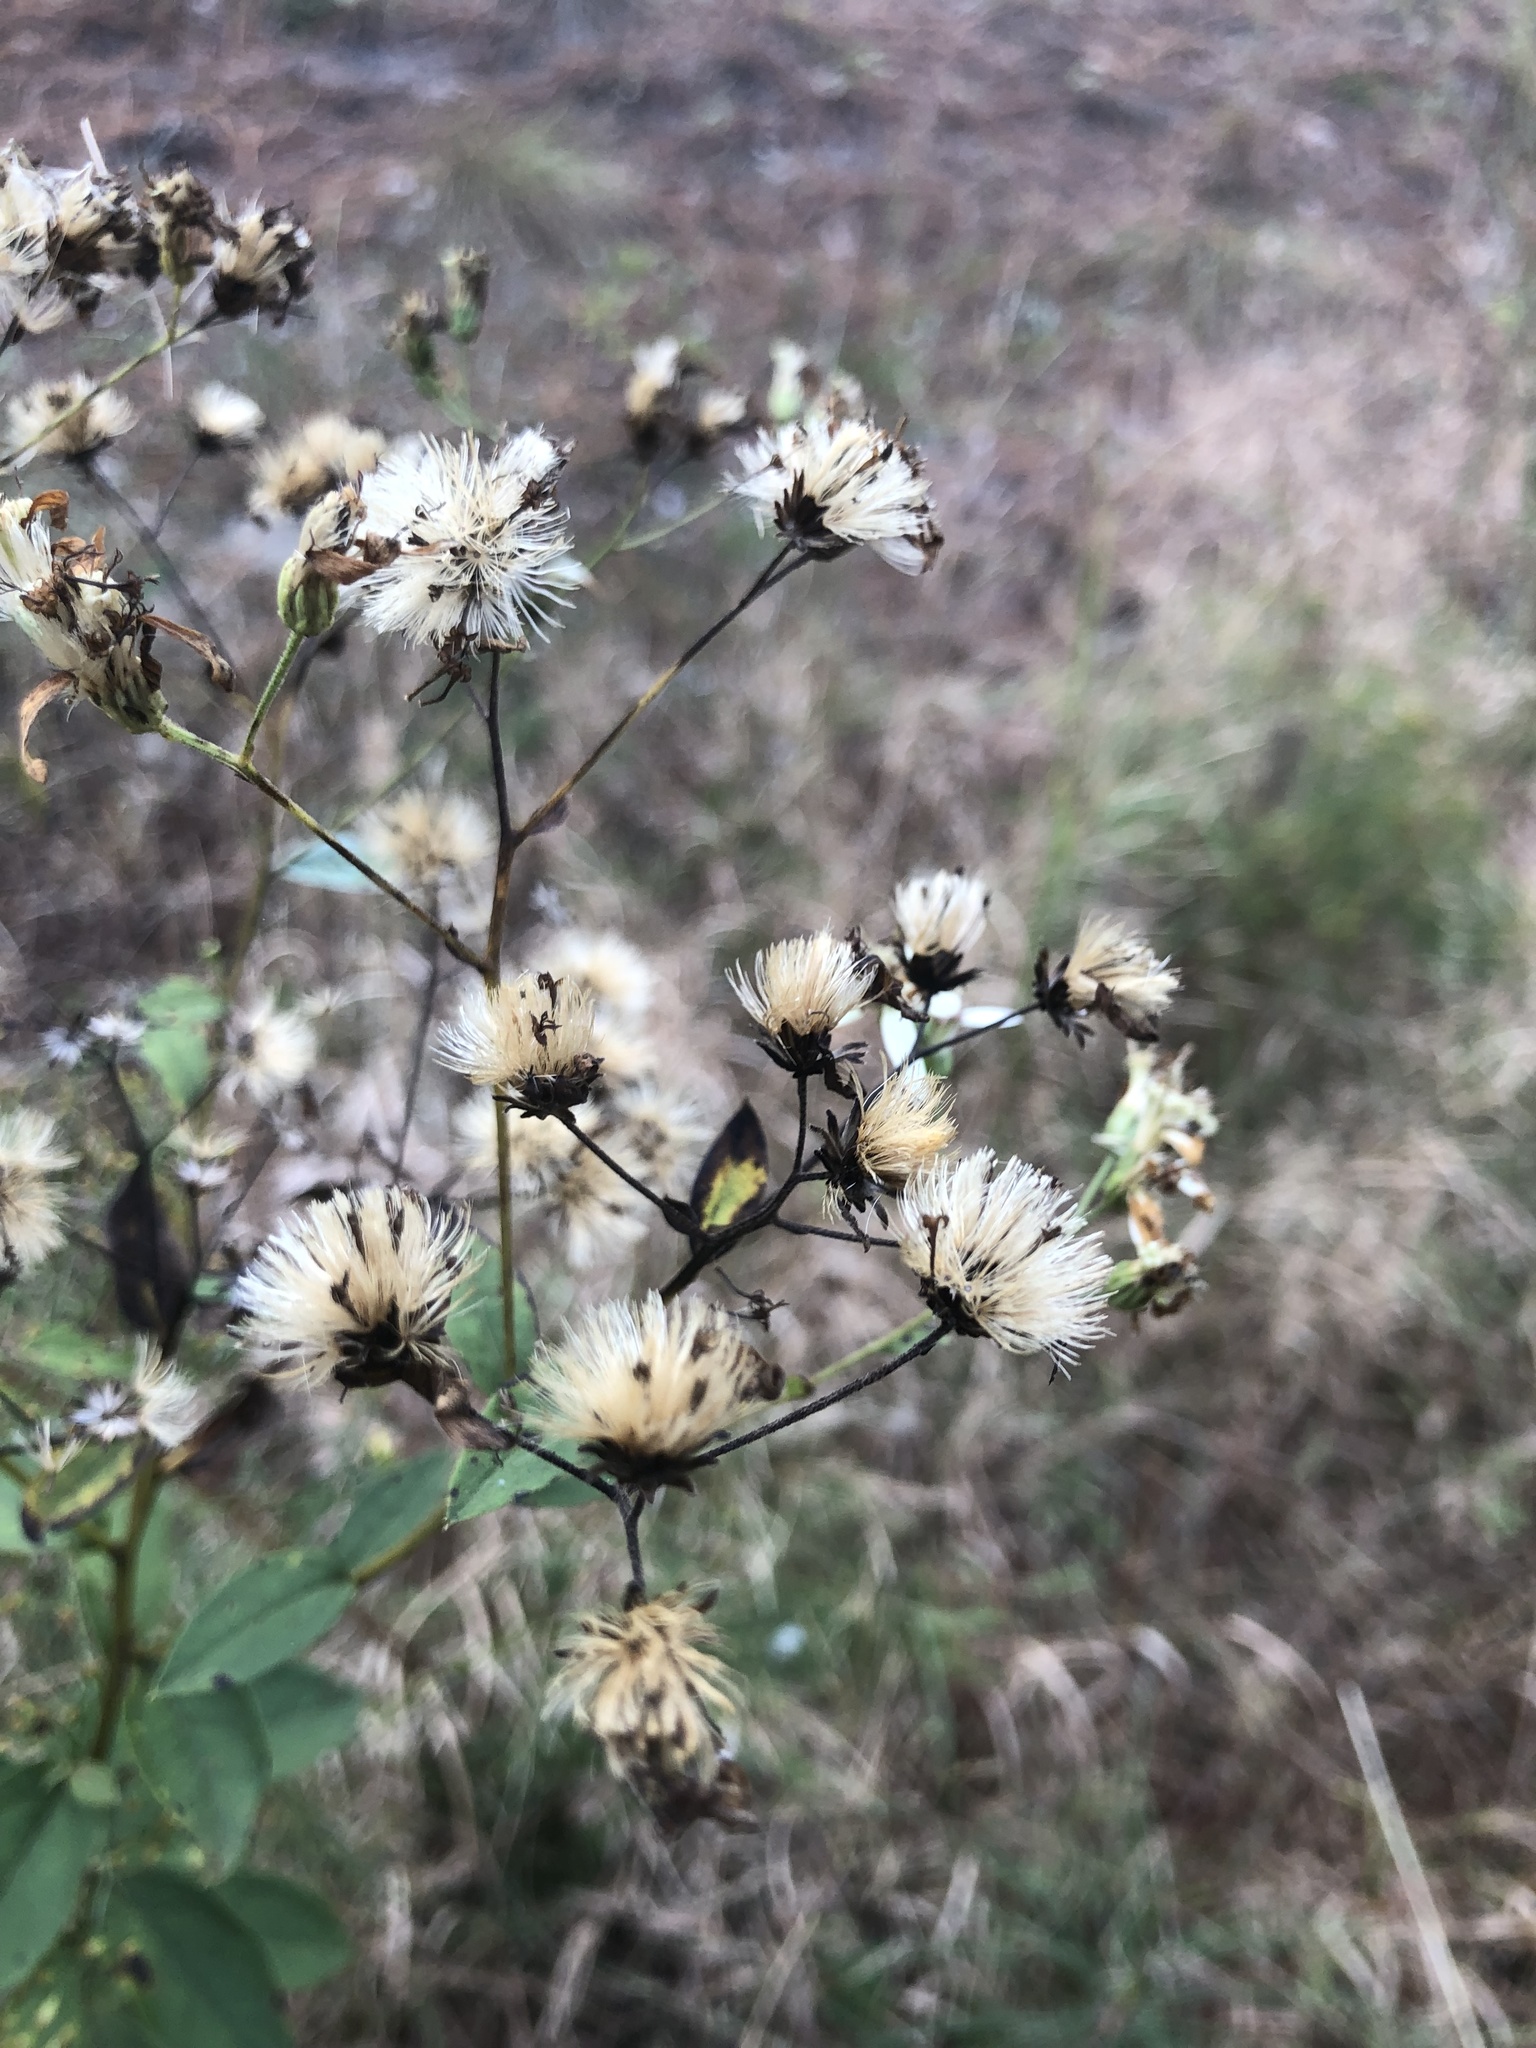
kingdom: Plantae
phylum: Tracheophyta
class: Magnoliopsida
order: Asterales
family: Asteraceae
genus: Doellingeria
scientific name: Doellingeria sericocarpoides
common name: Southern tall flat-top aster
